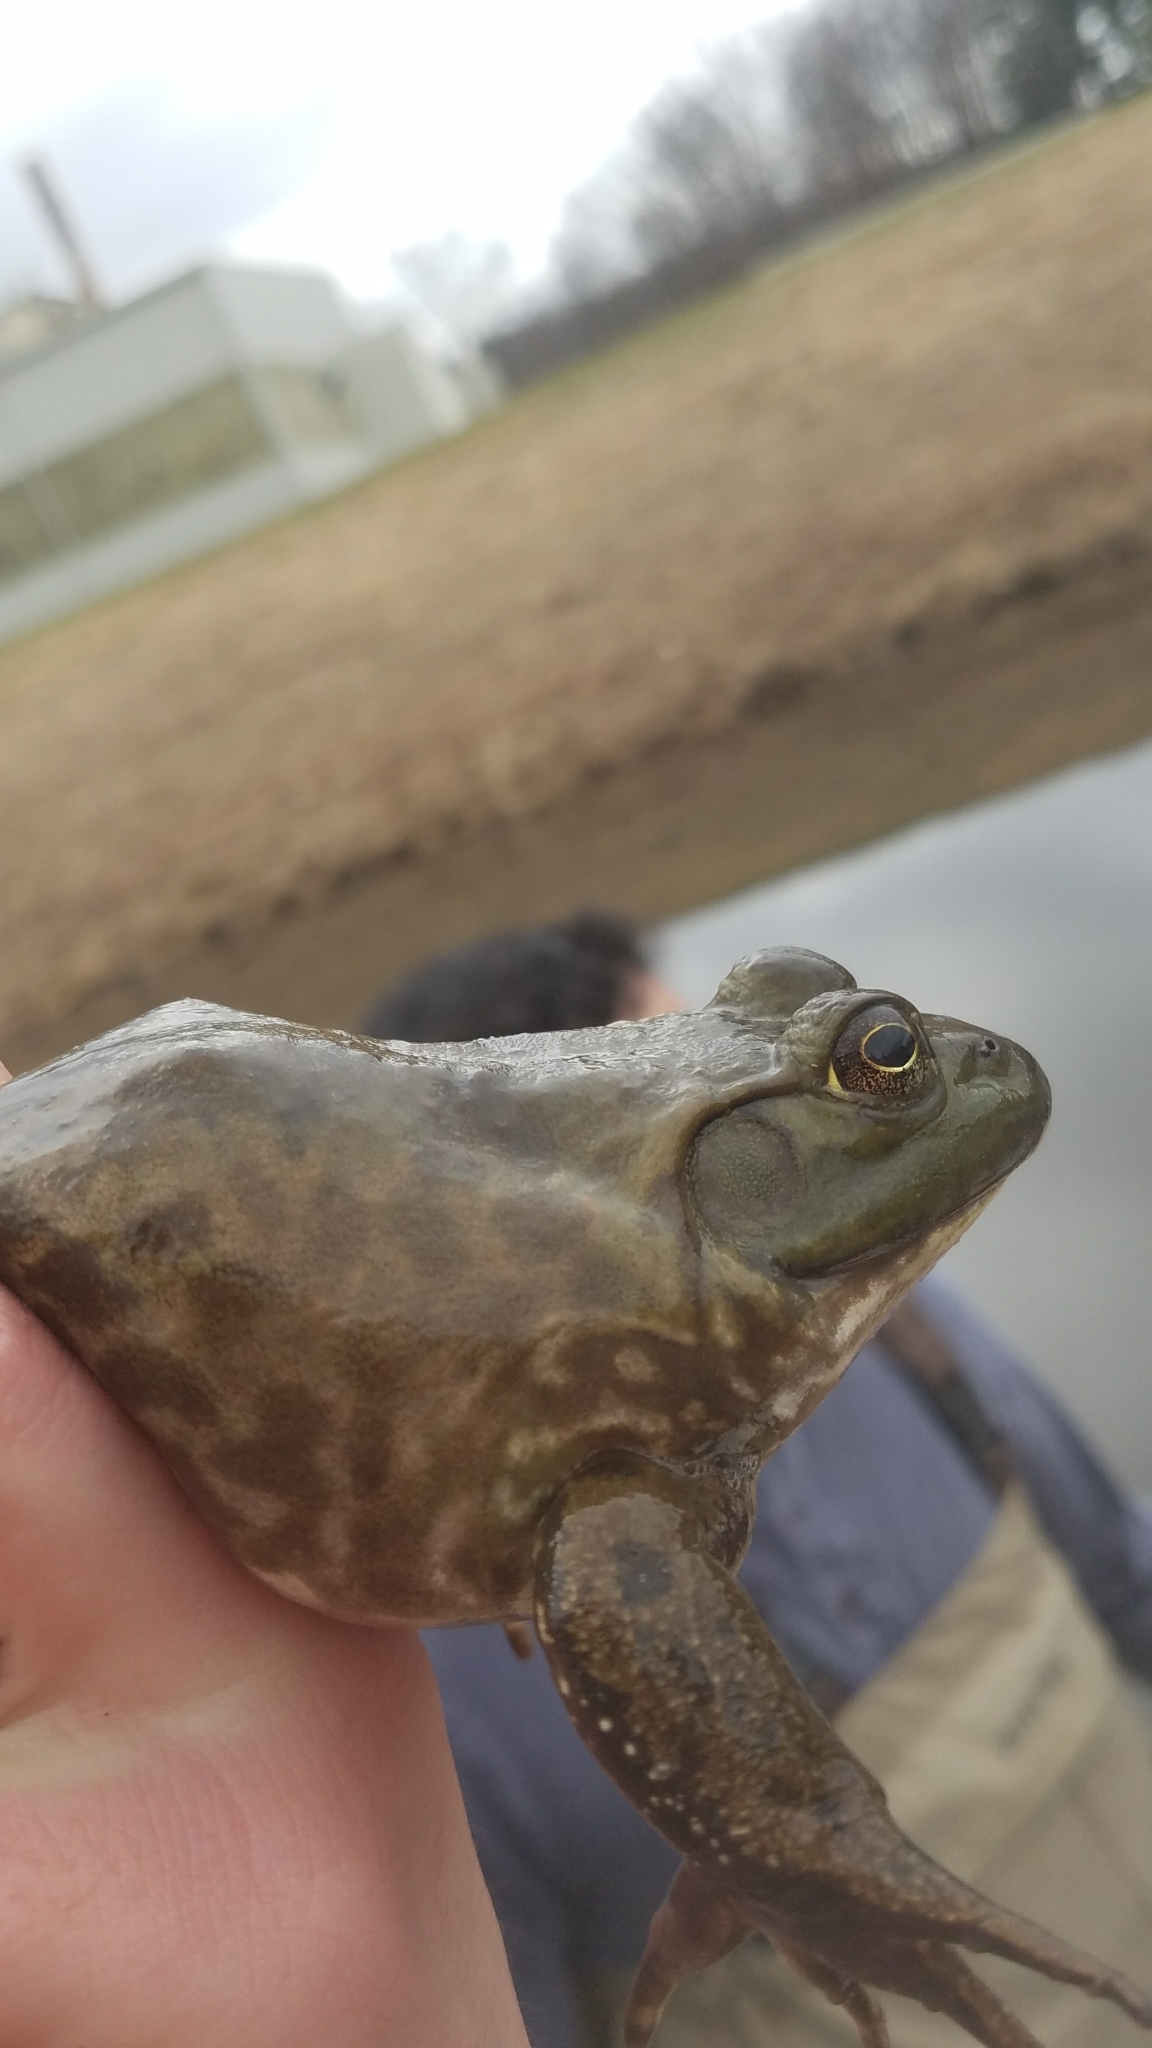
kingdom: Animalia
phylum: Chordata
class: Amphibia
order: Anura
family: Ranidae
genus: Lithobates
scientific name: Lithobates catesbeianus
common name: American bullfrog
